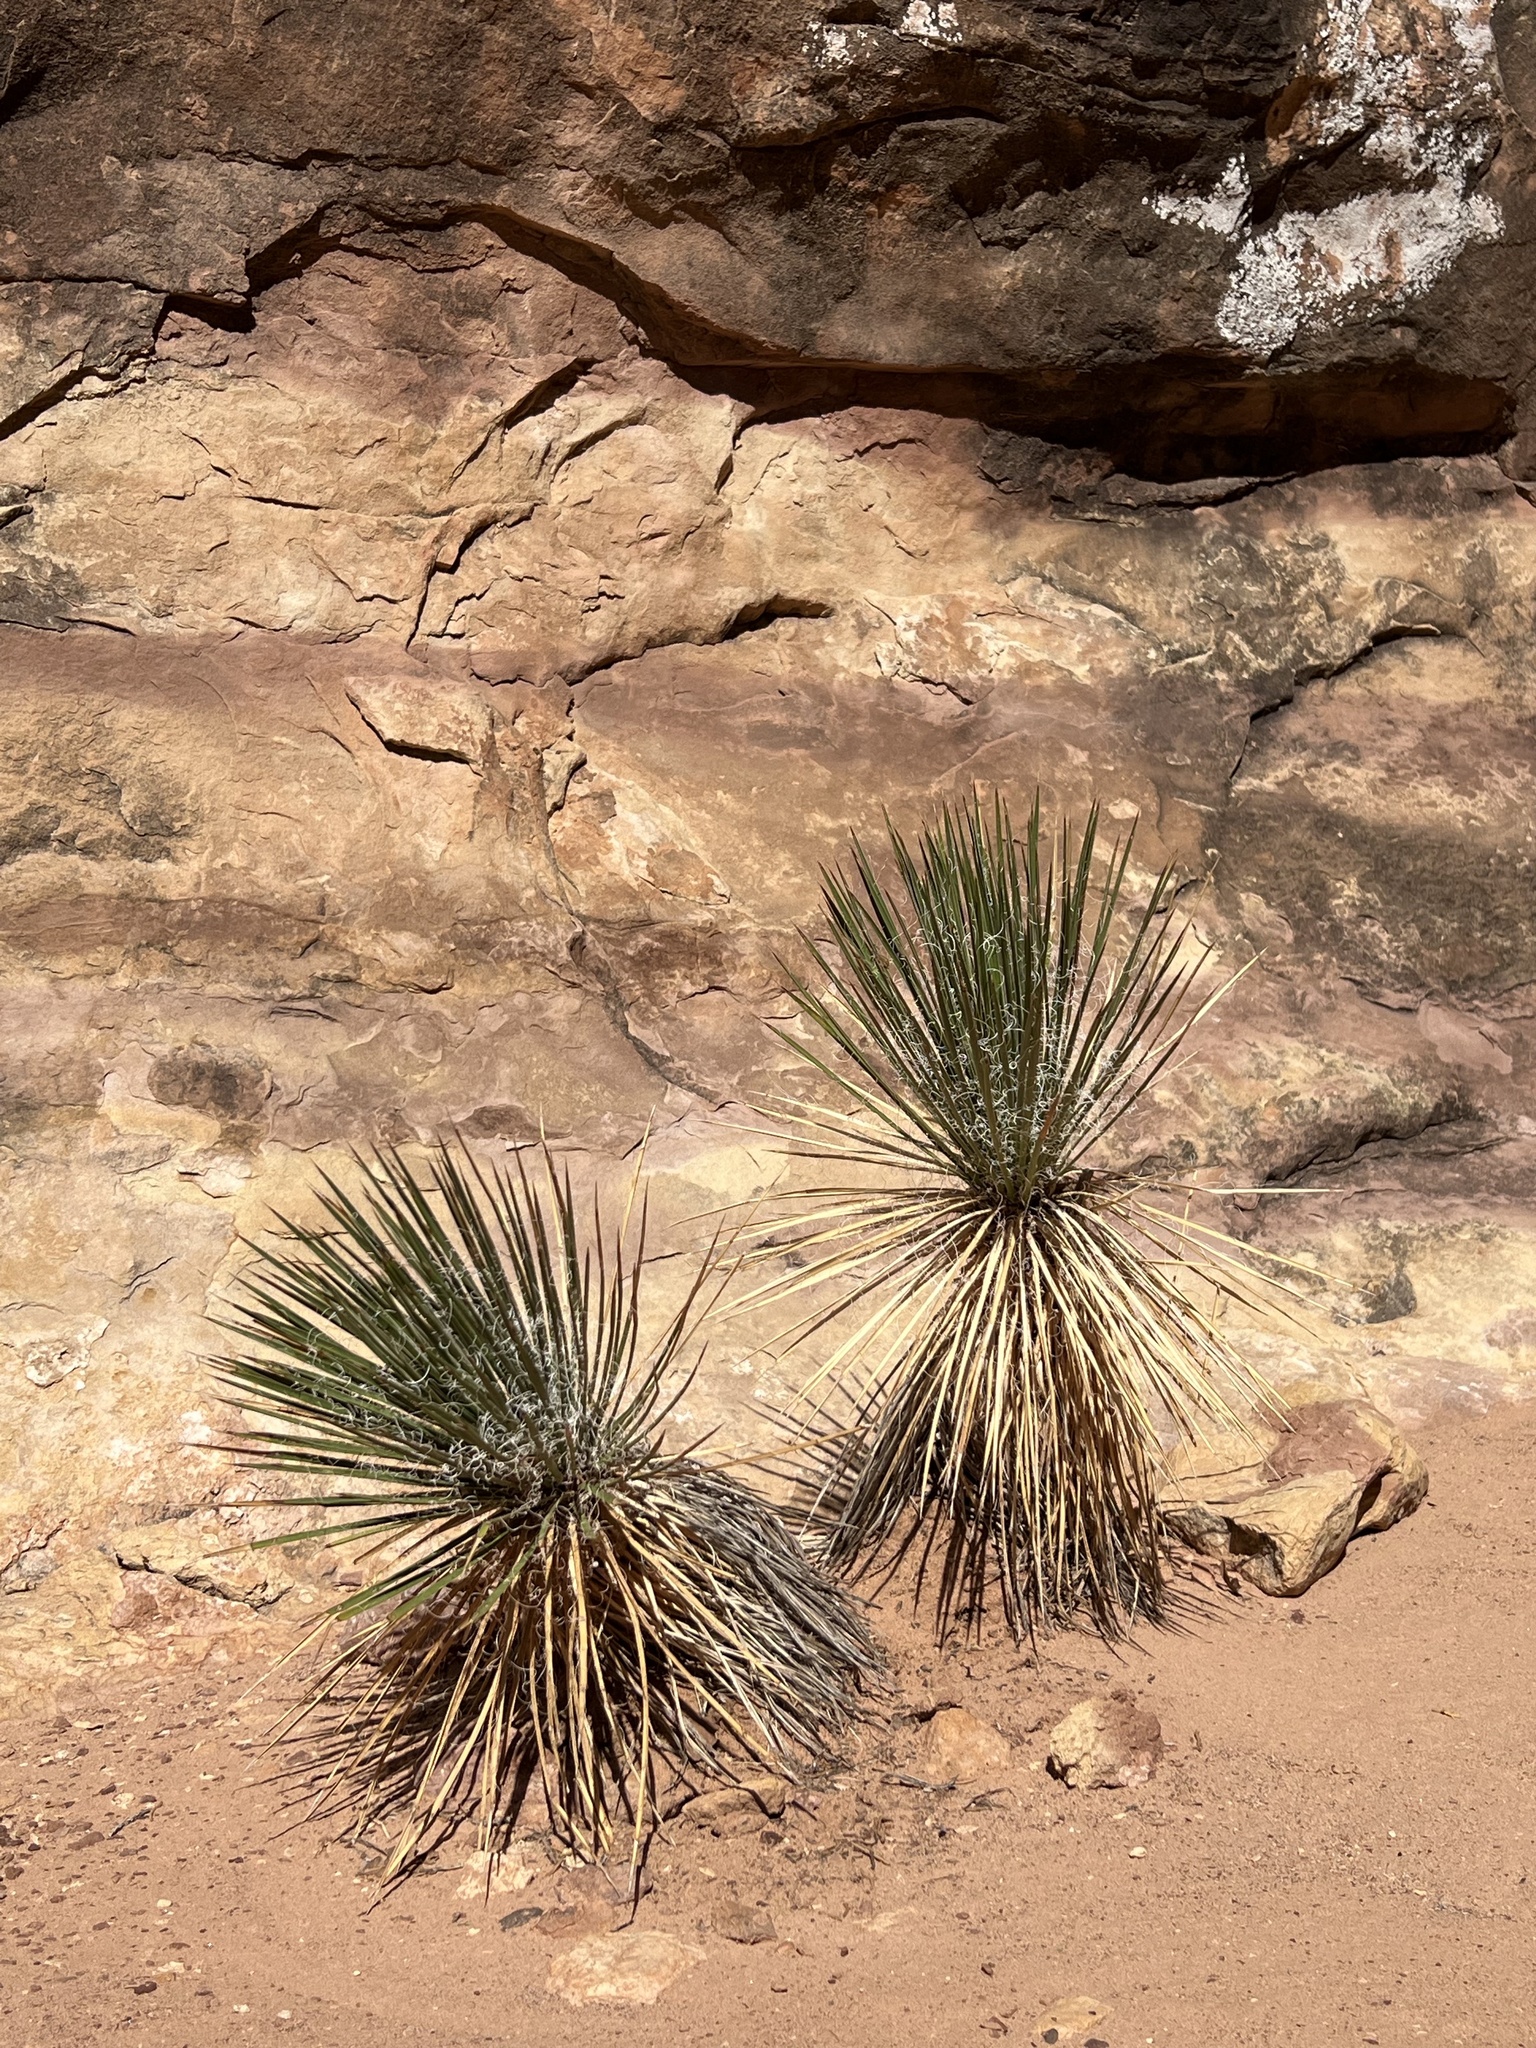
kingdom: Plantae
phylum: Tracheophyta
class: Liliopsida
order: Asparagales
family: Asparagaceae
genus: Yucca
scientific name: Yucca angustissima
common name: Narrowleaf yucca
